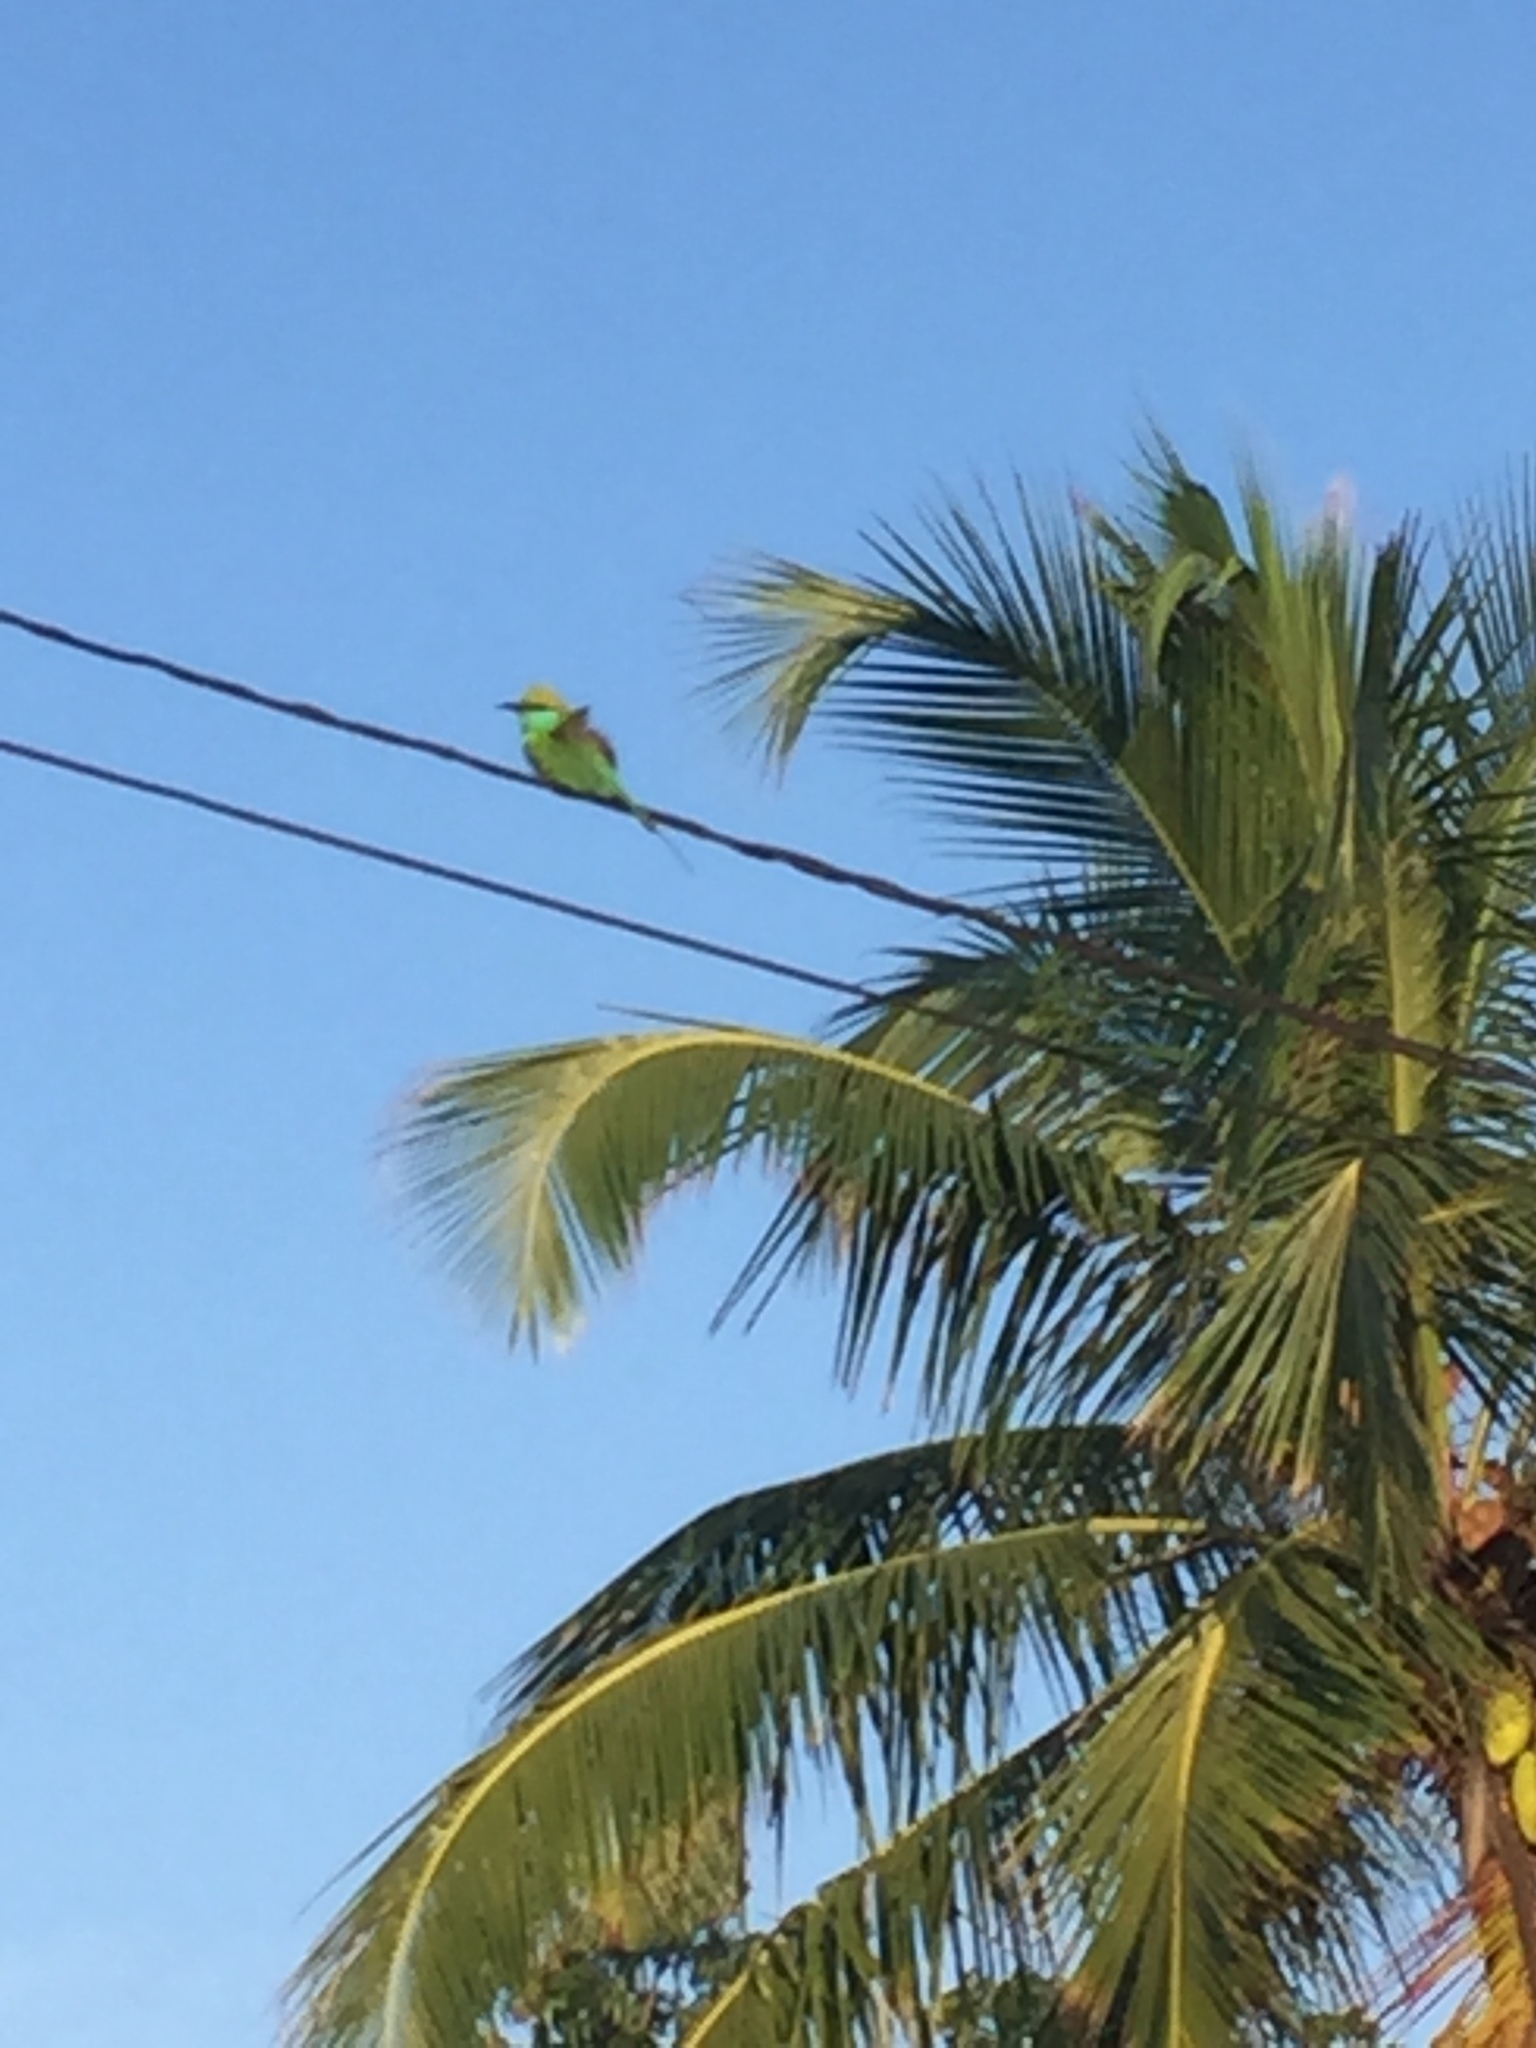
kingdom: Animalia
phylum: Chordata
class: Aves
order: Coraciiformes
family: Meropidae
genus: Merops
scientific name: Merops orientalis
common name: Green bee-eater
